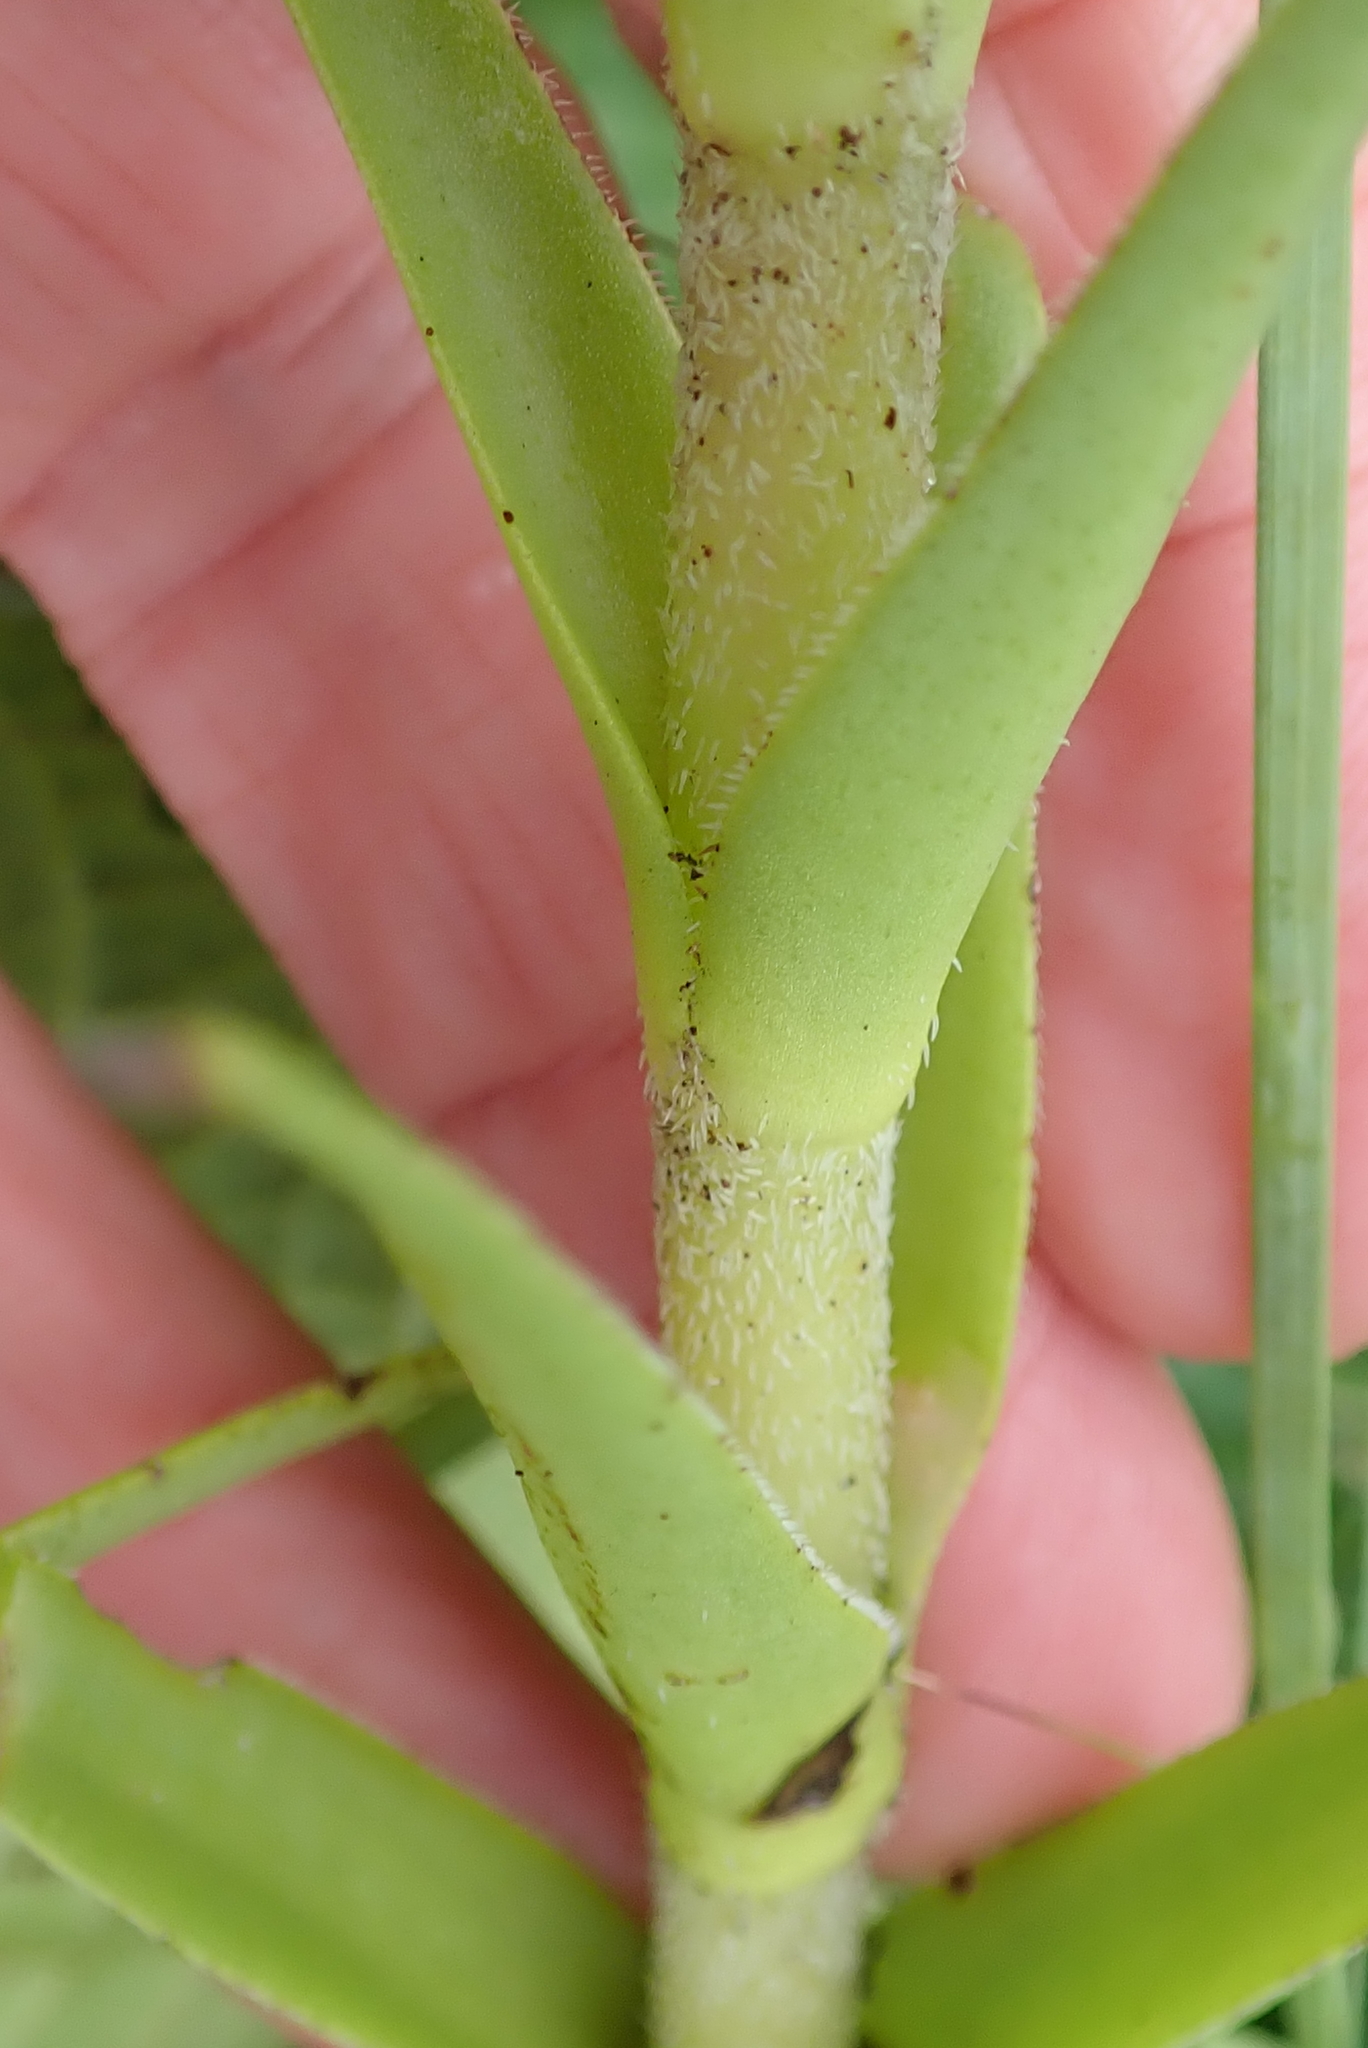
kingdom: Plantae
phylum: Tracheophyta
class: Magnoliopsida
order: Saxifragales
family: Crassulaceae
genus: Crassula
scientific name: Crassula alba
